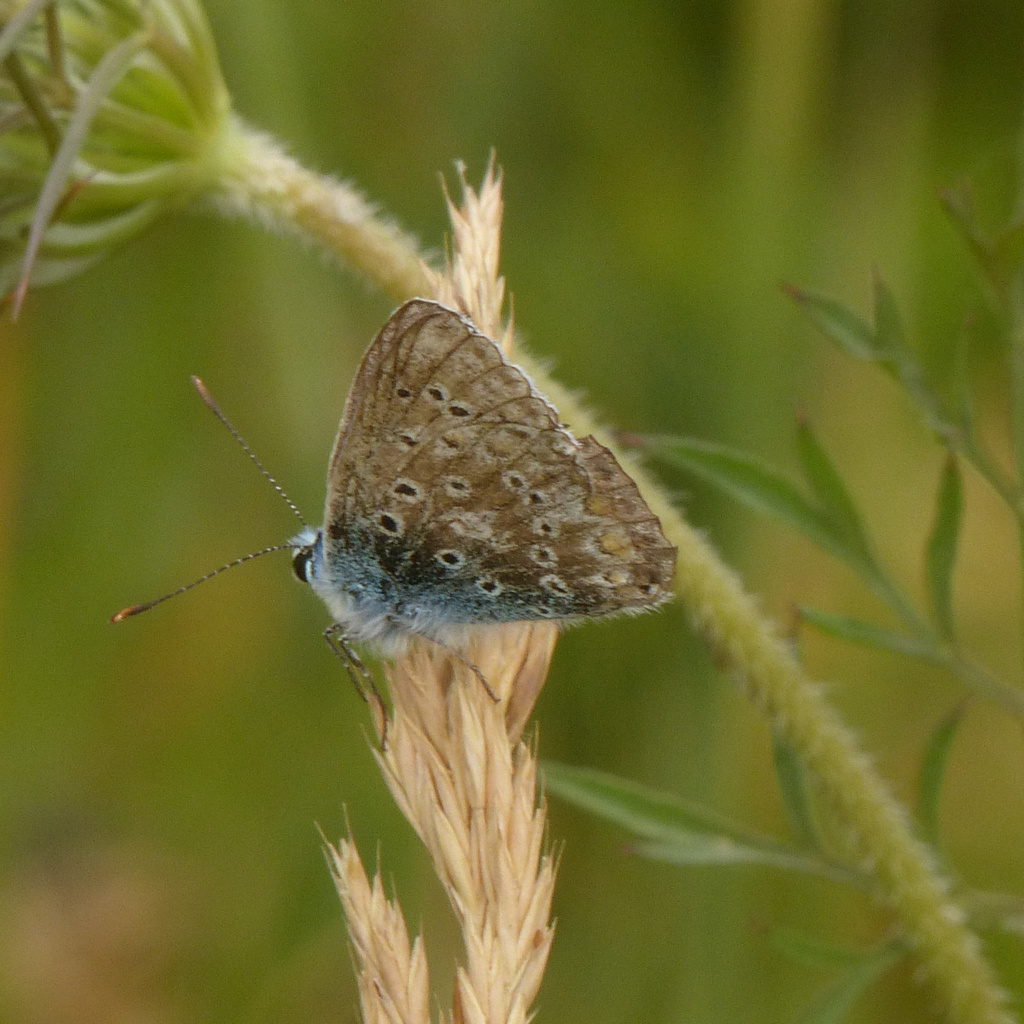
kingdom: Animalia
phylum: Arthropoda
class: Insecta
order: Lepidoptera
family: Lycaenidae
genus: Polyommatus
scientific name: Polyommatus icarus
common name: Common blue
